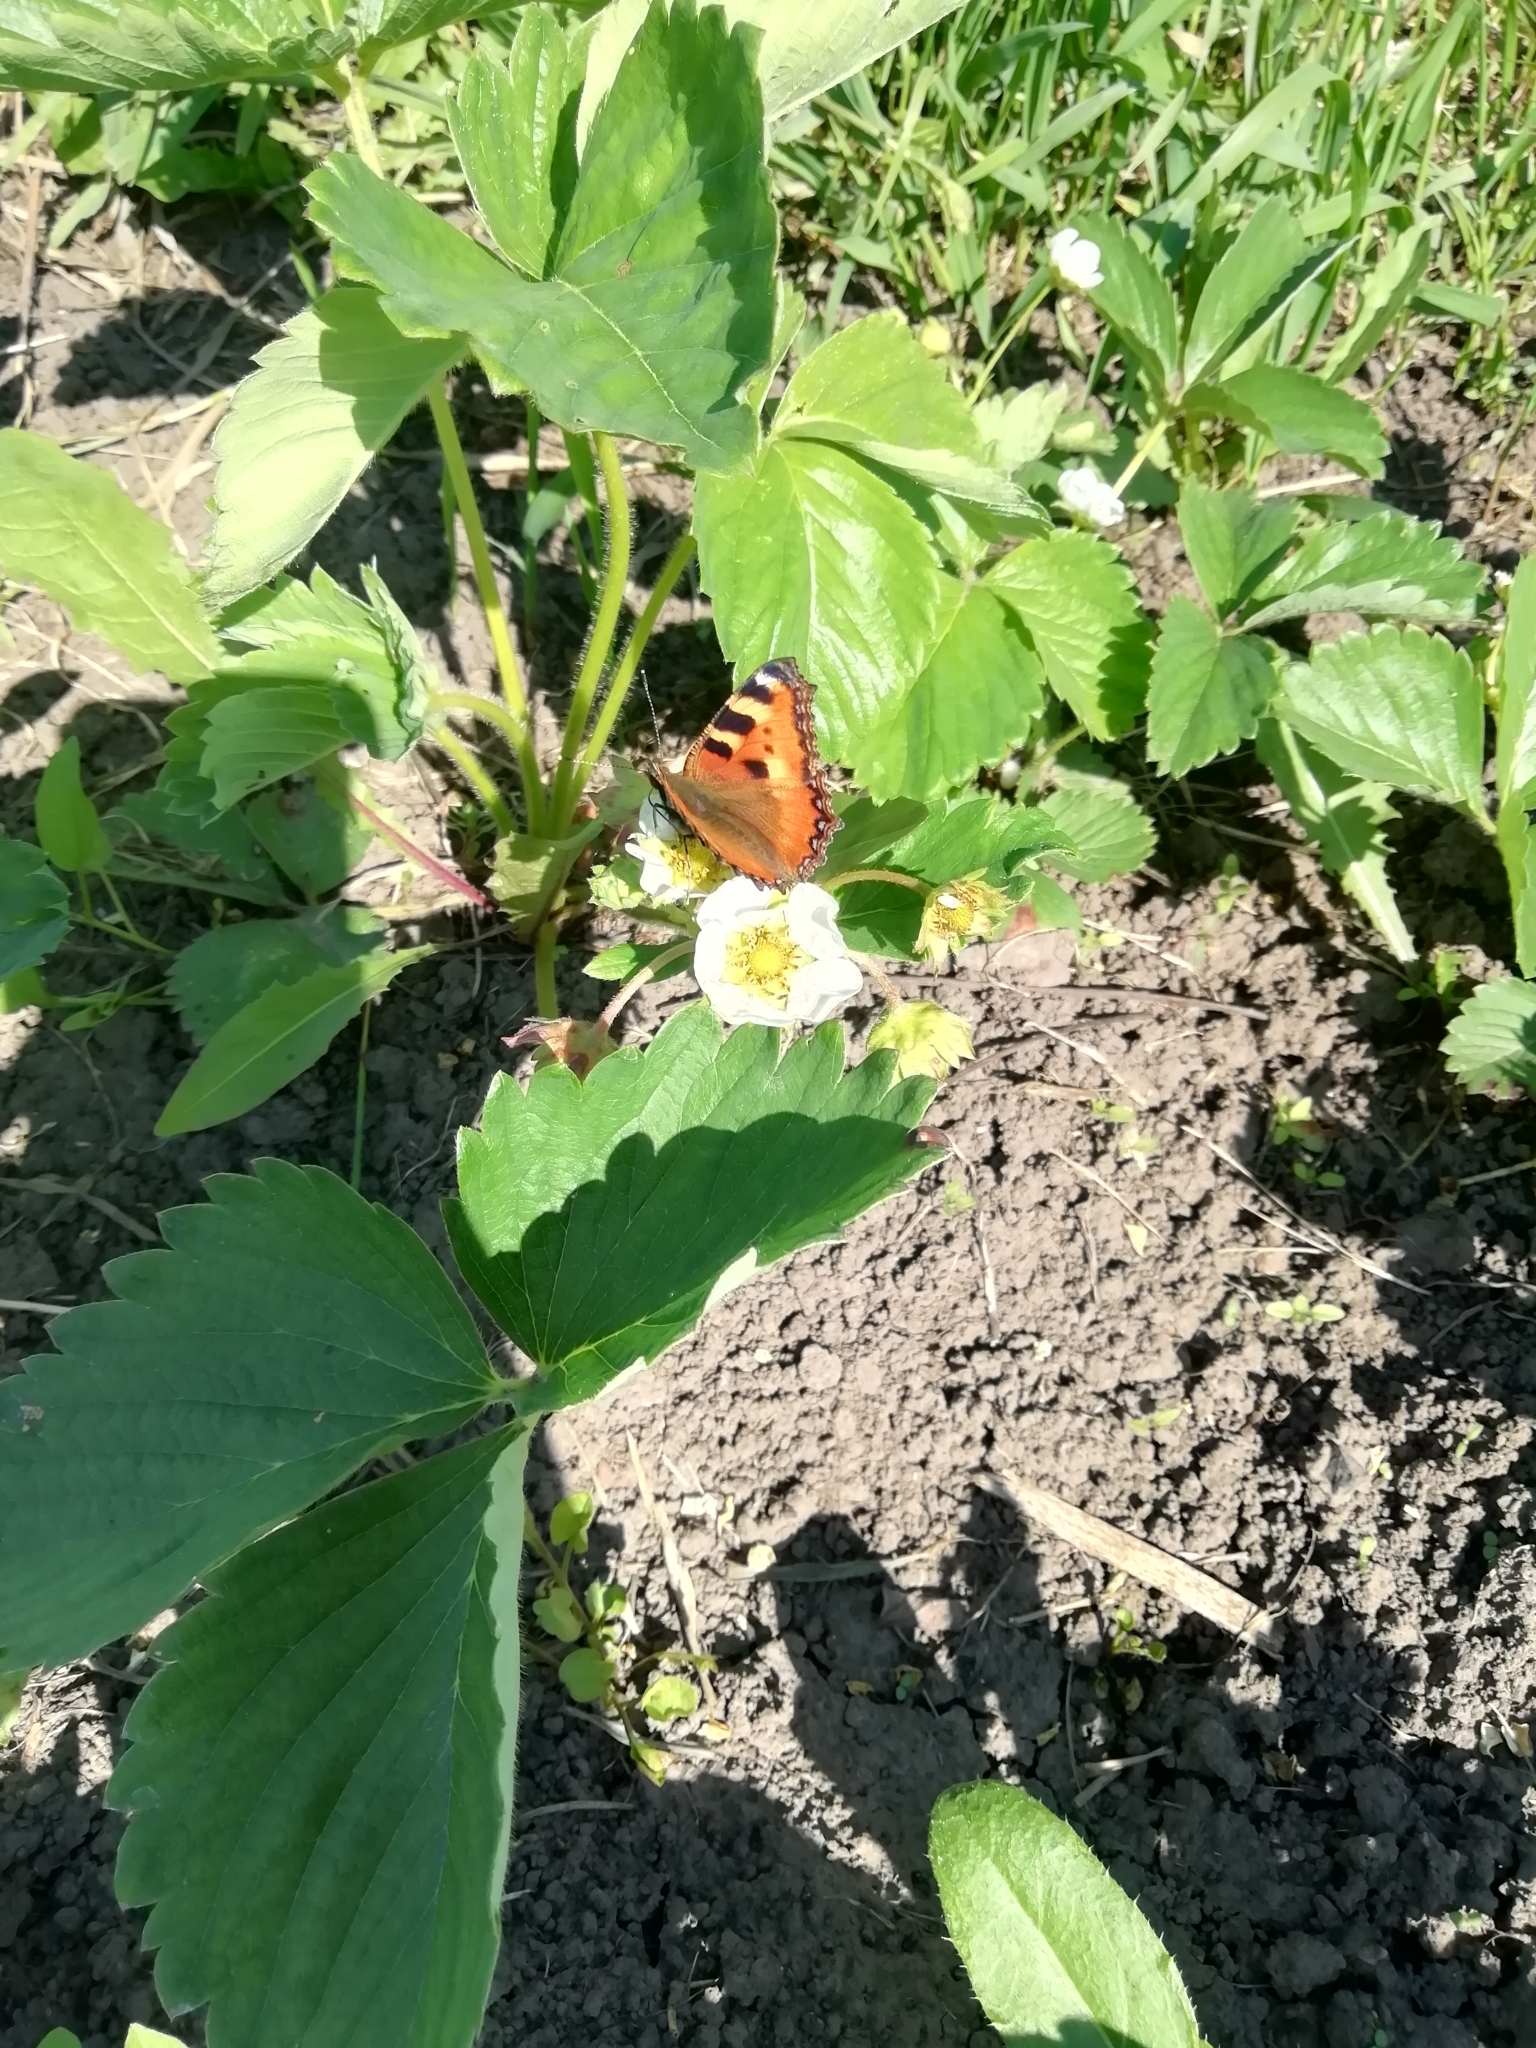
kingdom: Animalia
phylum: Arthropoda
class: Insecta
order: Lepidoptera
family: Nymphalidae
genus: Aglais
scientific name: Aglais urticae
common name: Small tortoiseshell
